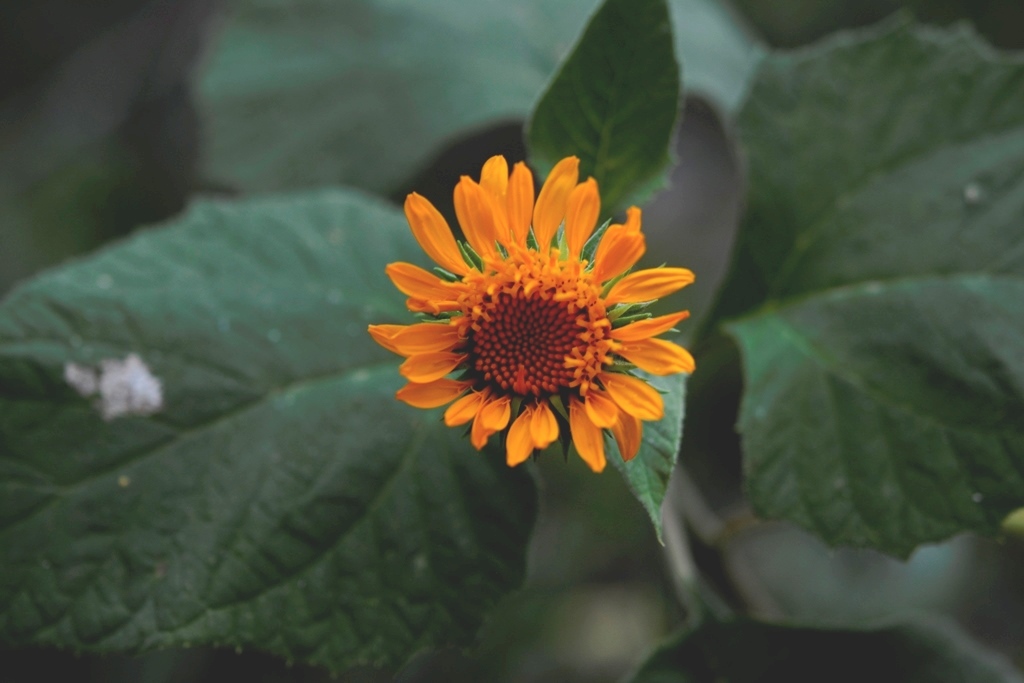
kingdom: Plantae
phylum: Tracheophyta
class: Magnoliopsida
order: Asterales
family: Asteraceae
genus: Sinclairia
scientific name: Sinclairia andrieuxii
